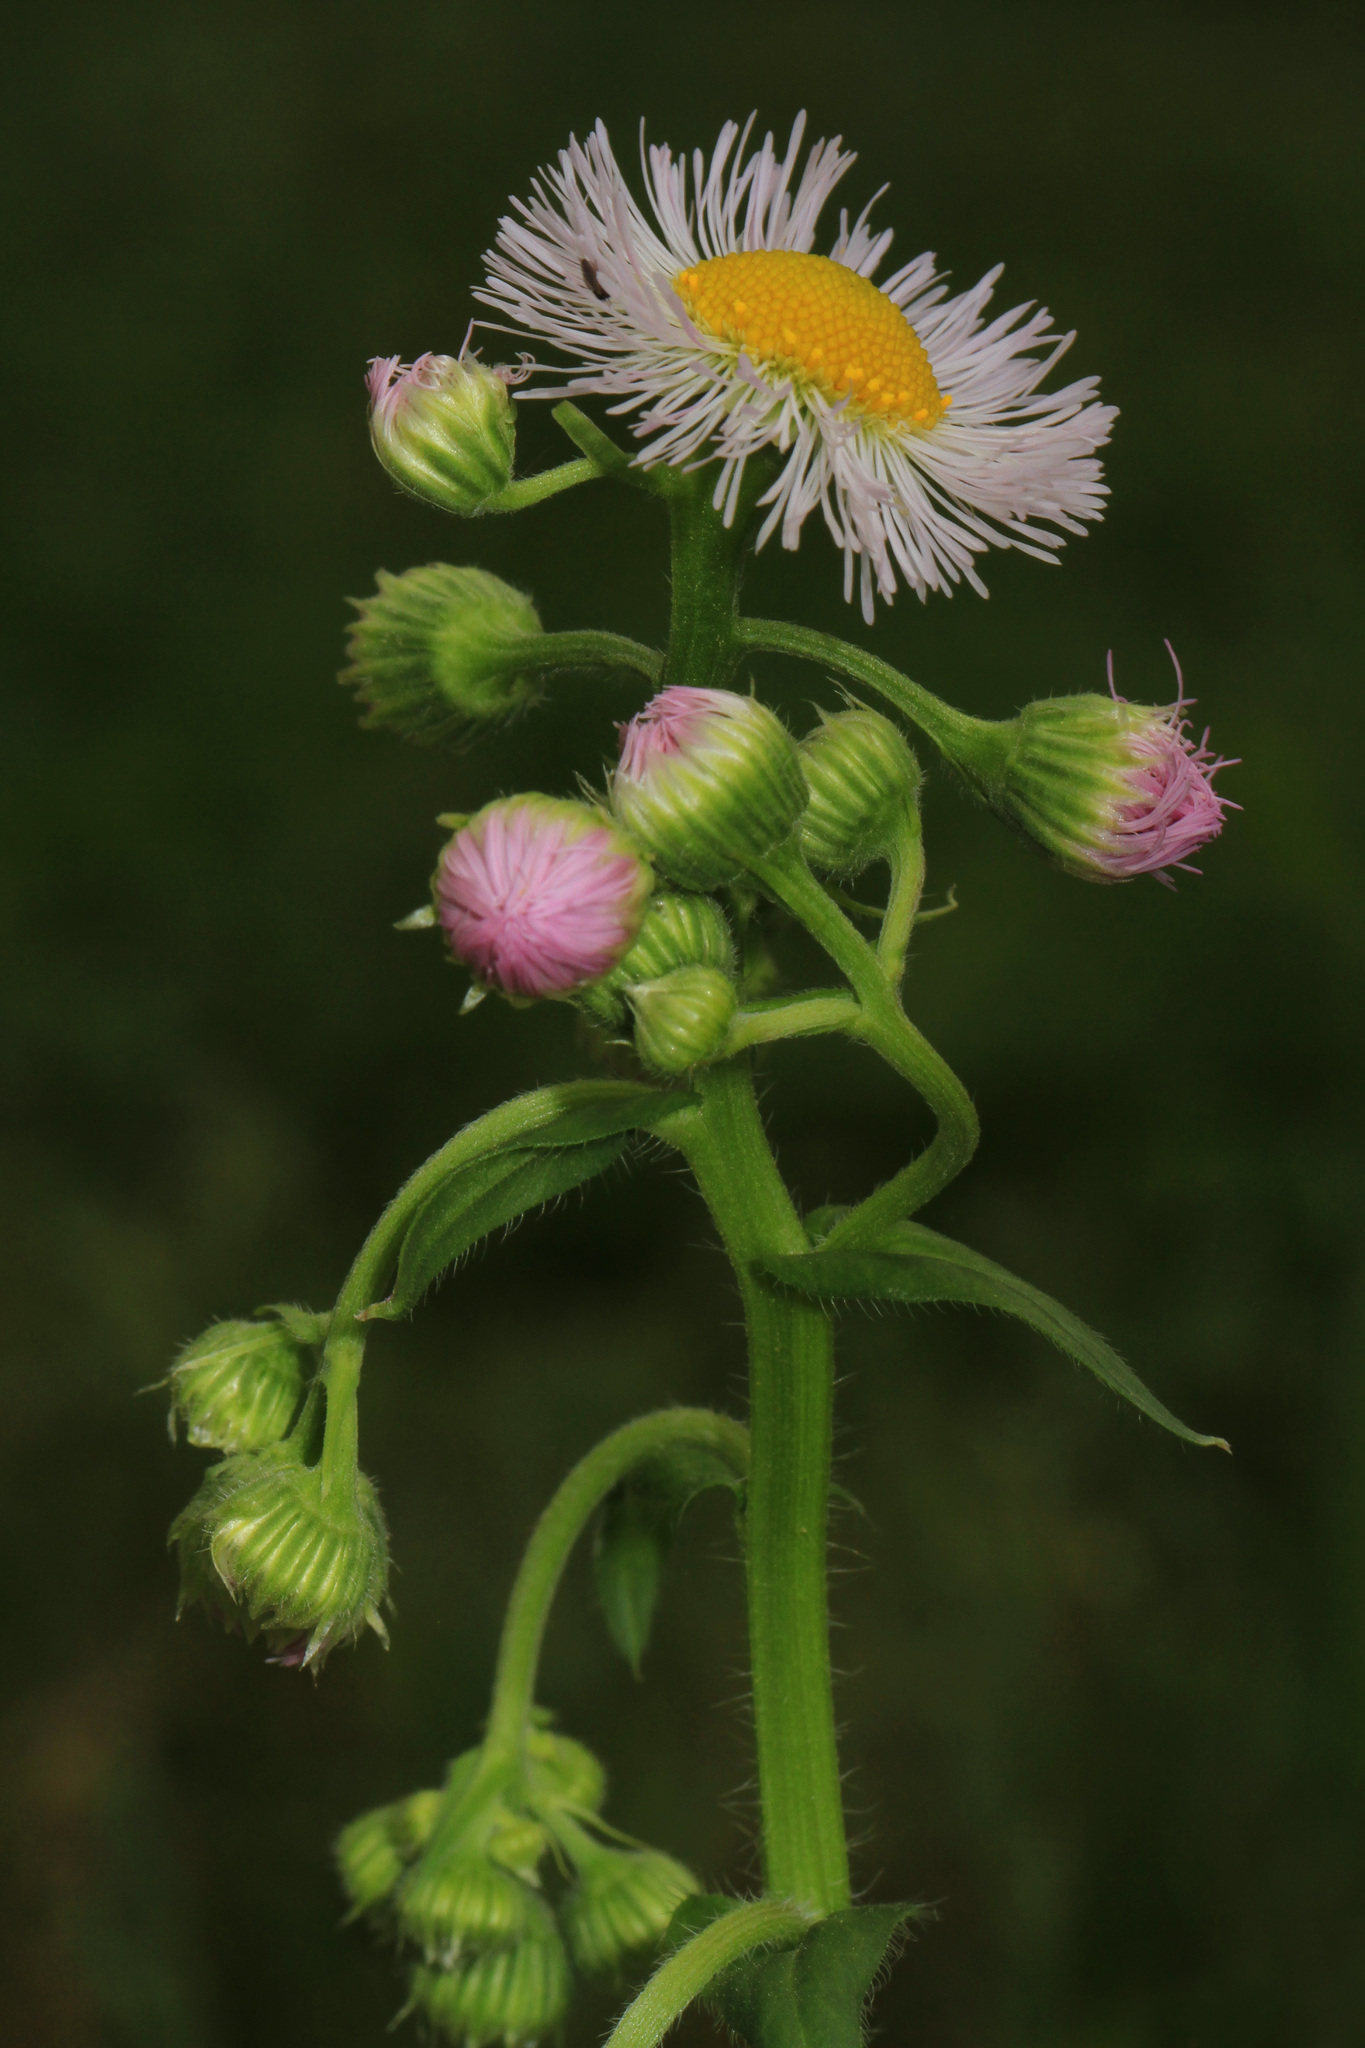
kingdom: Plantae
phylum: Tracheophyta
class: Magnoliopsida
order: Asterales
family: Asteraceae
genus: Erigeron
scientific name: Erigeron philadelphicus
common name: Robin's-plantain
